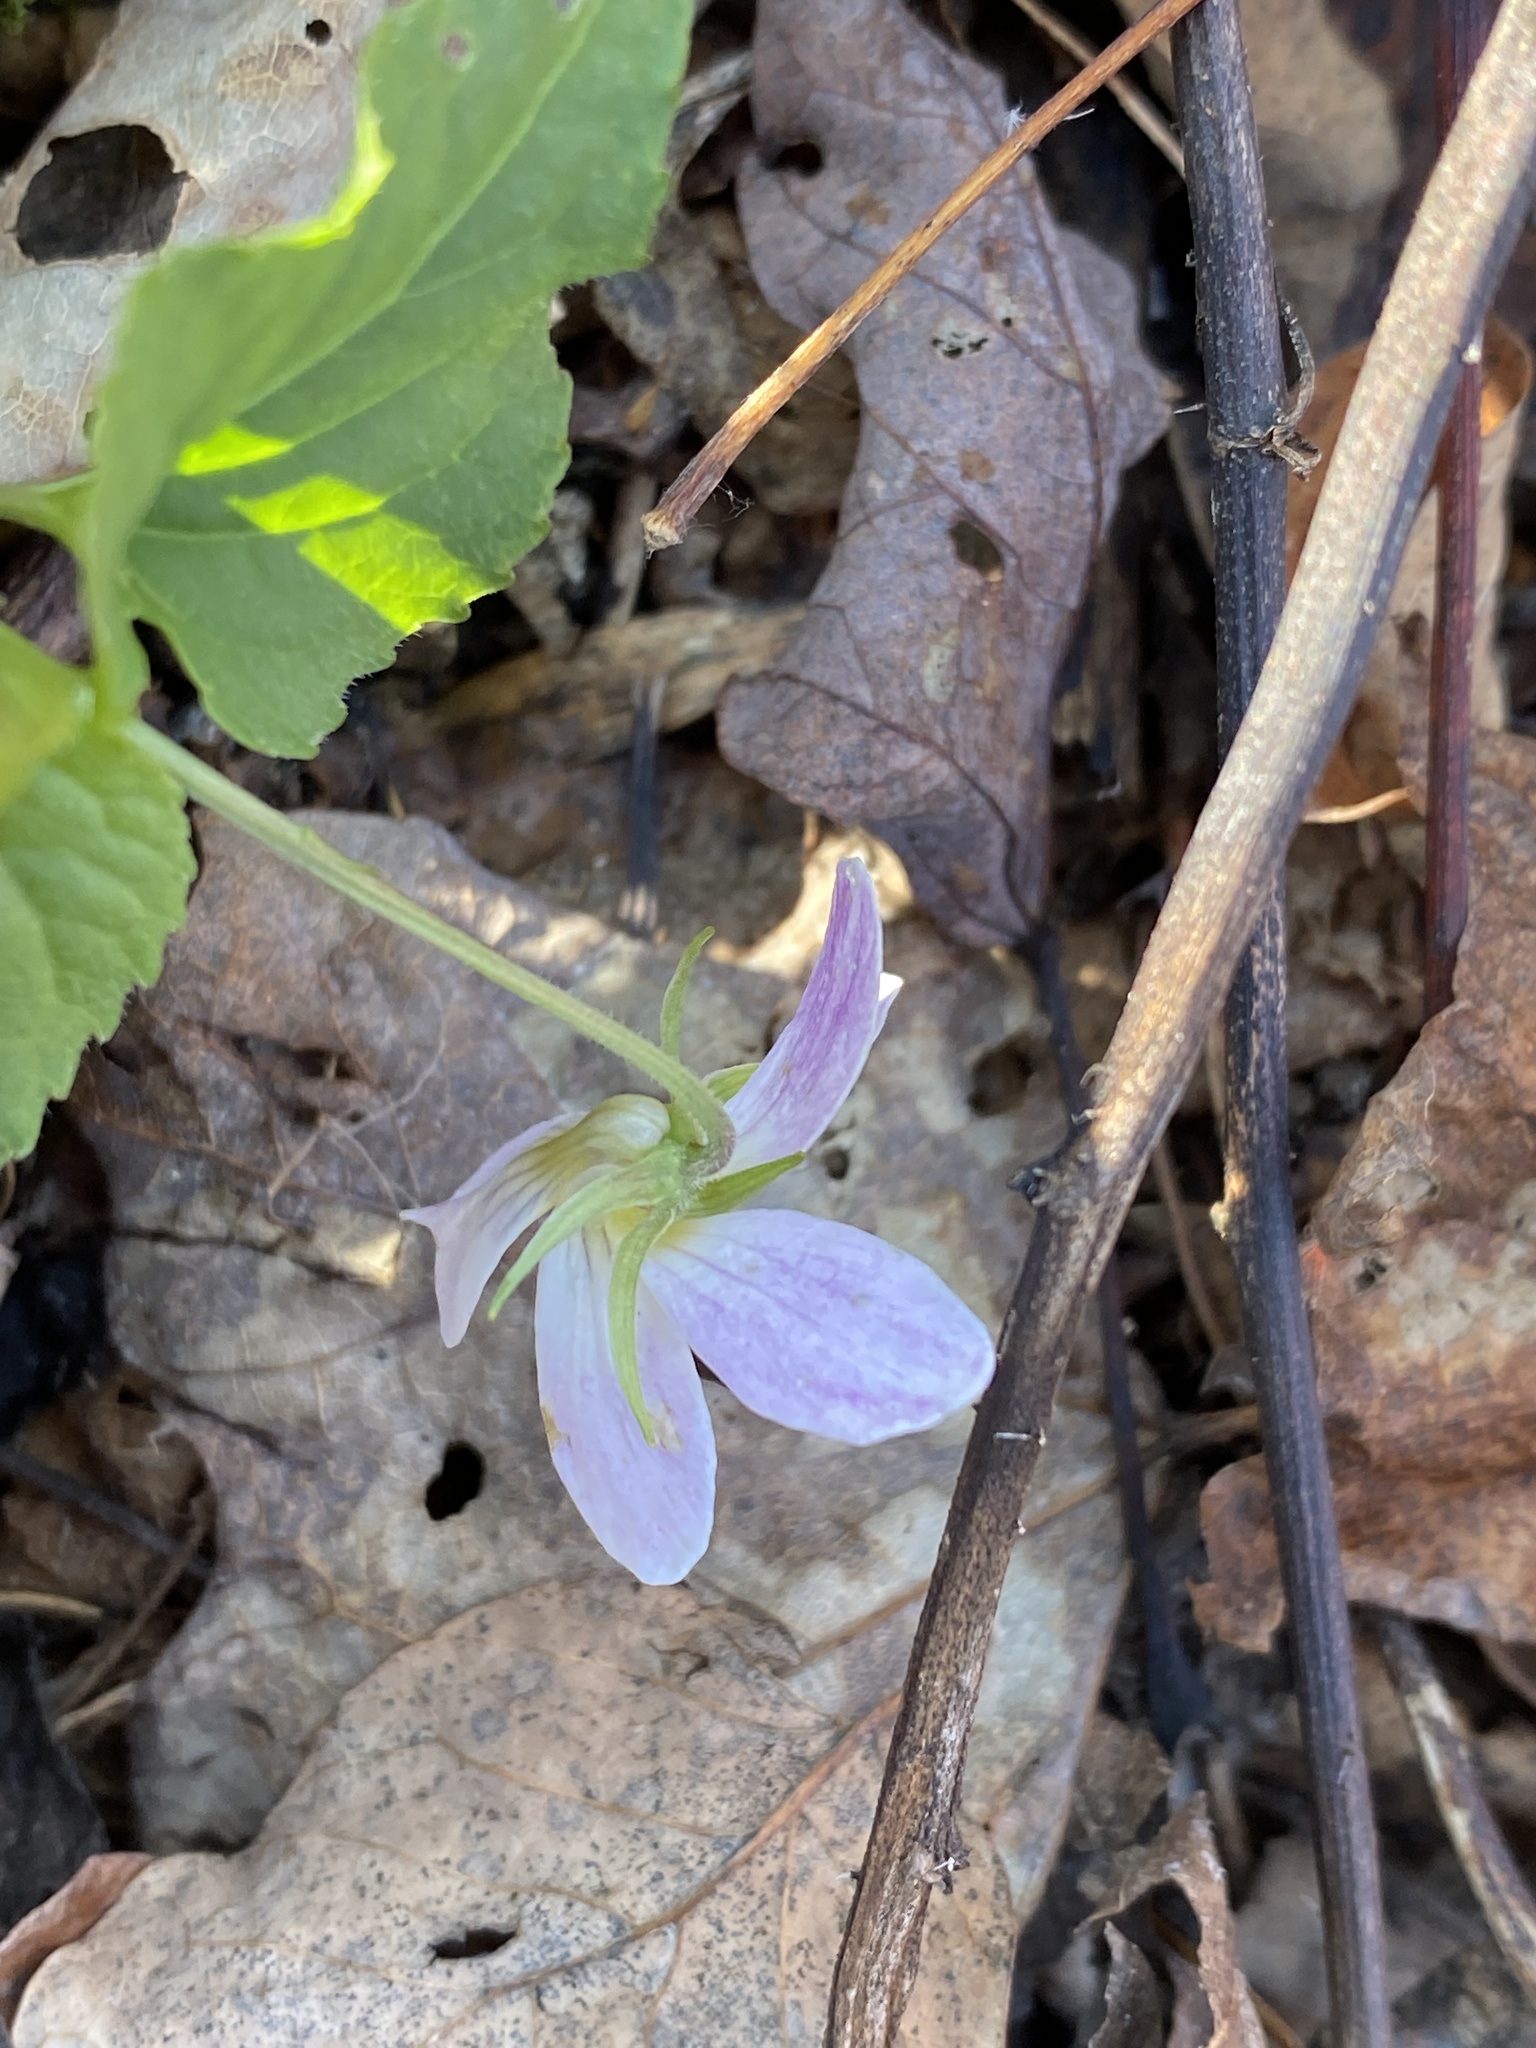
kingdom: Plantae
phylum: Tracheophyta
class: Magnoliopsida
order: Malpighiales
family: Violaceae
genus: Viola
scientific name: Viola canadensis
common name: Canada violet
